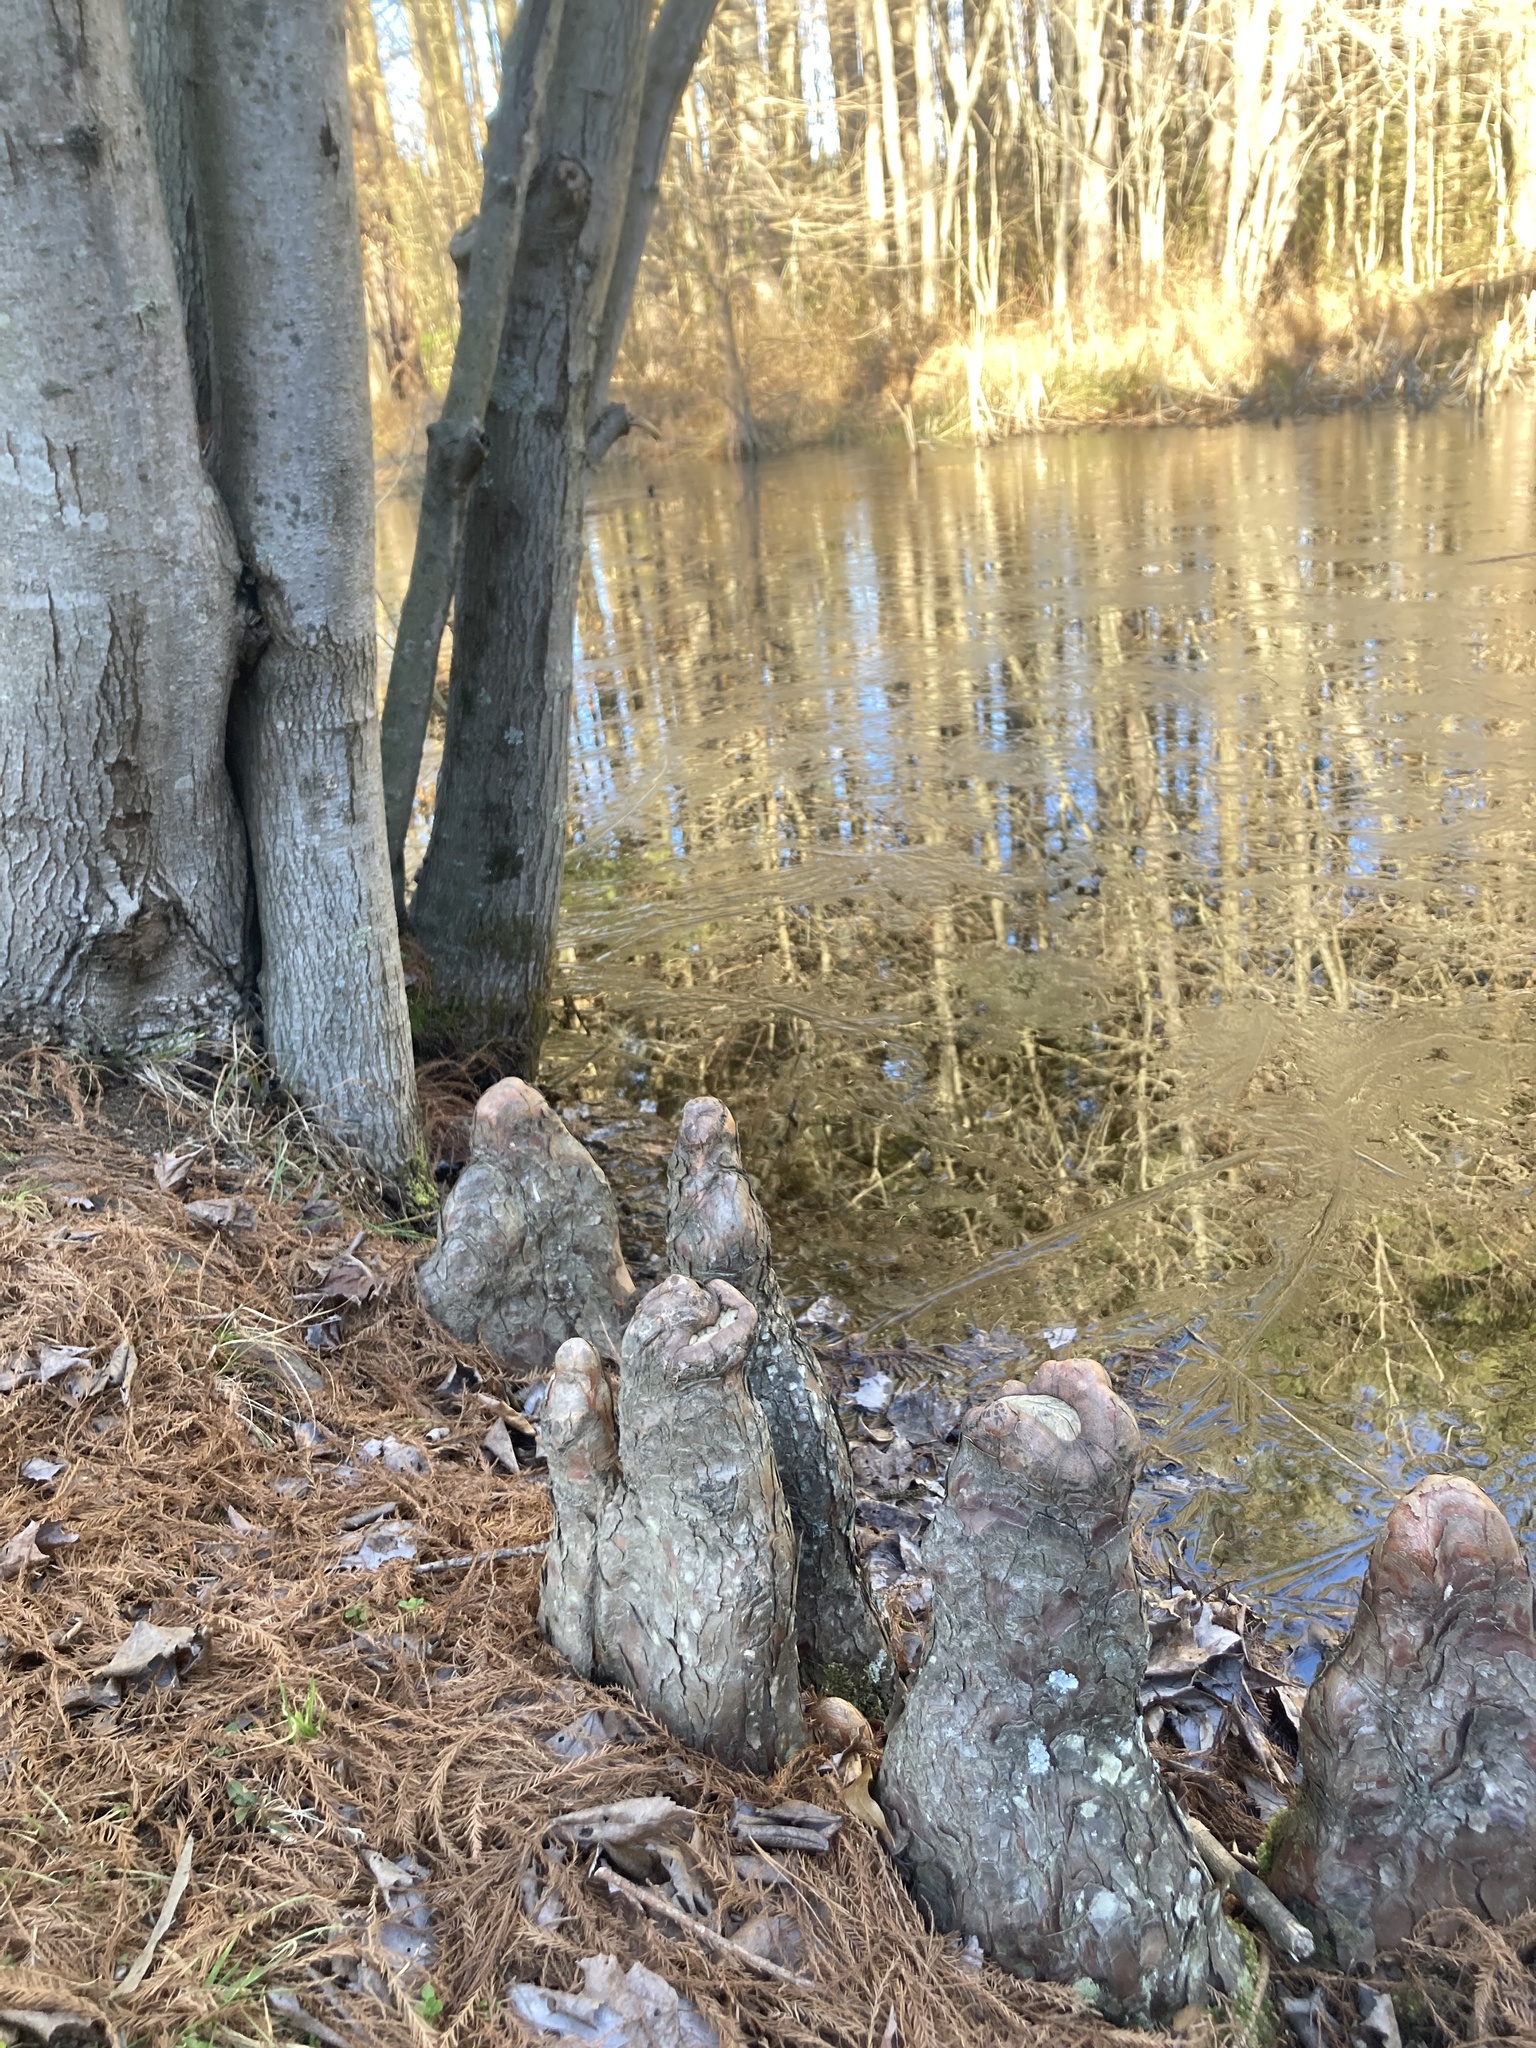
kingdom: Plantae
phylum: Tracheophyta
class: Pinopsida
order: Pinales
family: Cupressaceae
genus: Taxodium
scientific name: Taxodium distichum
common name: Bald cypress
